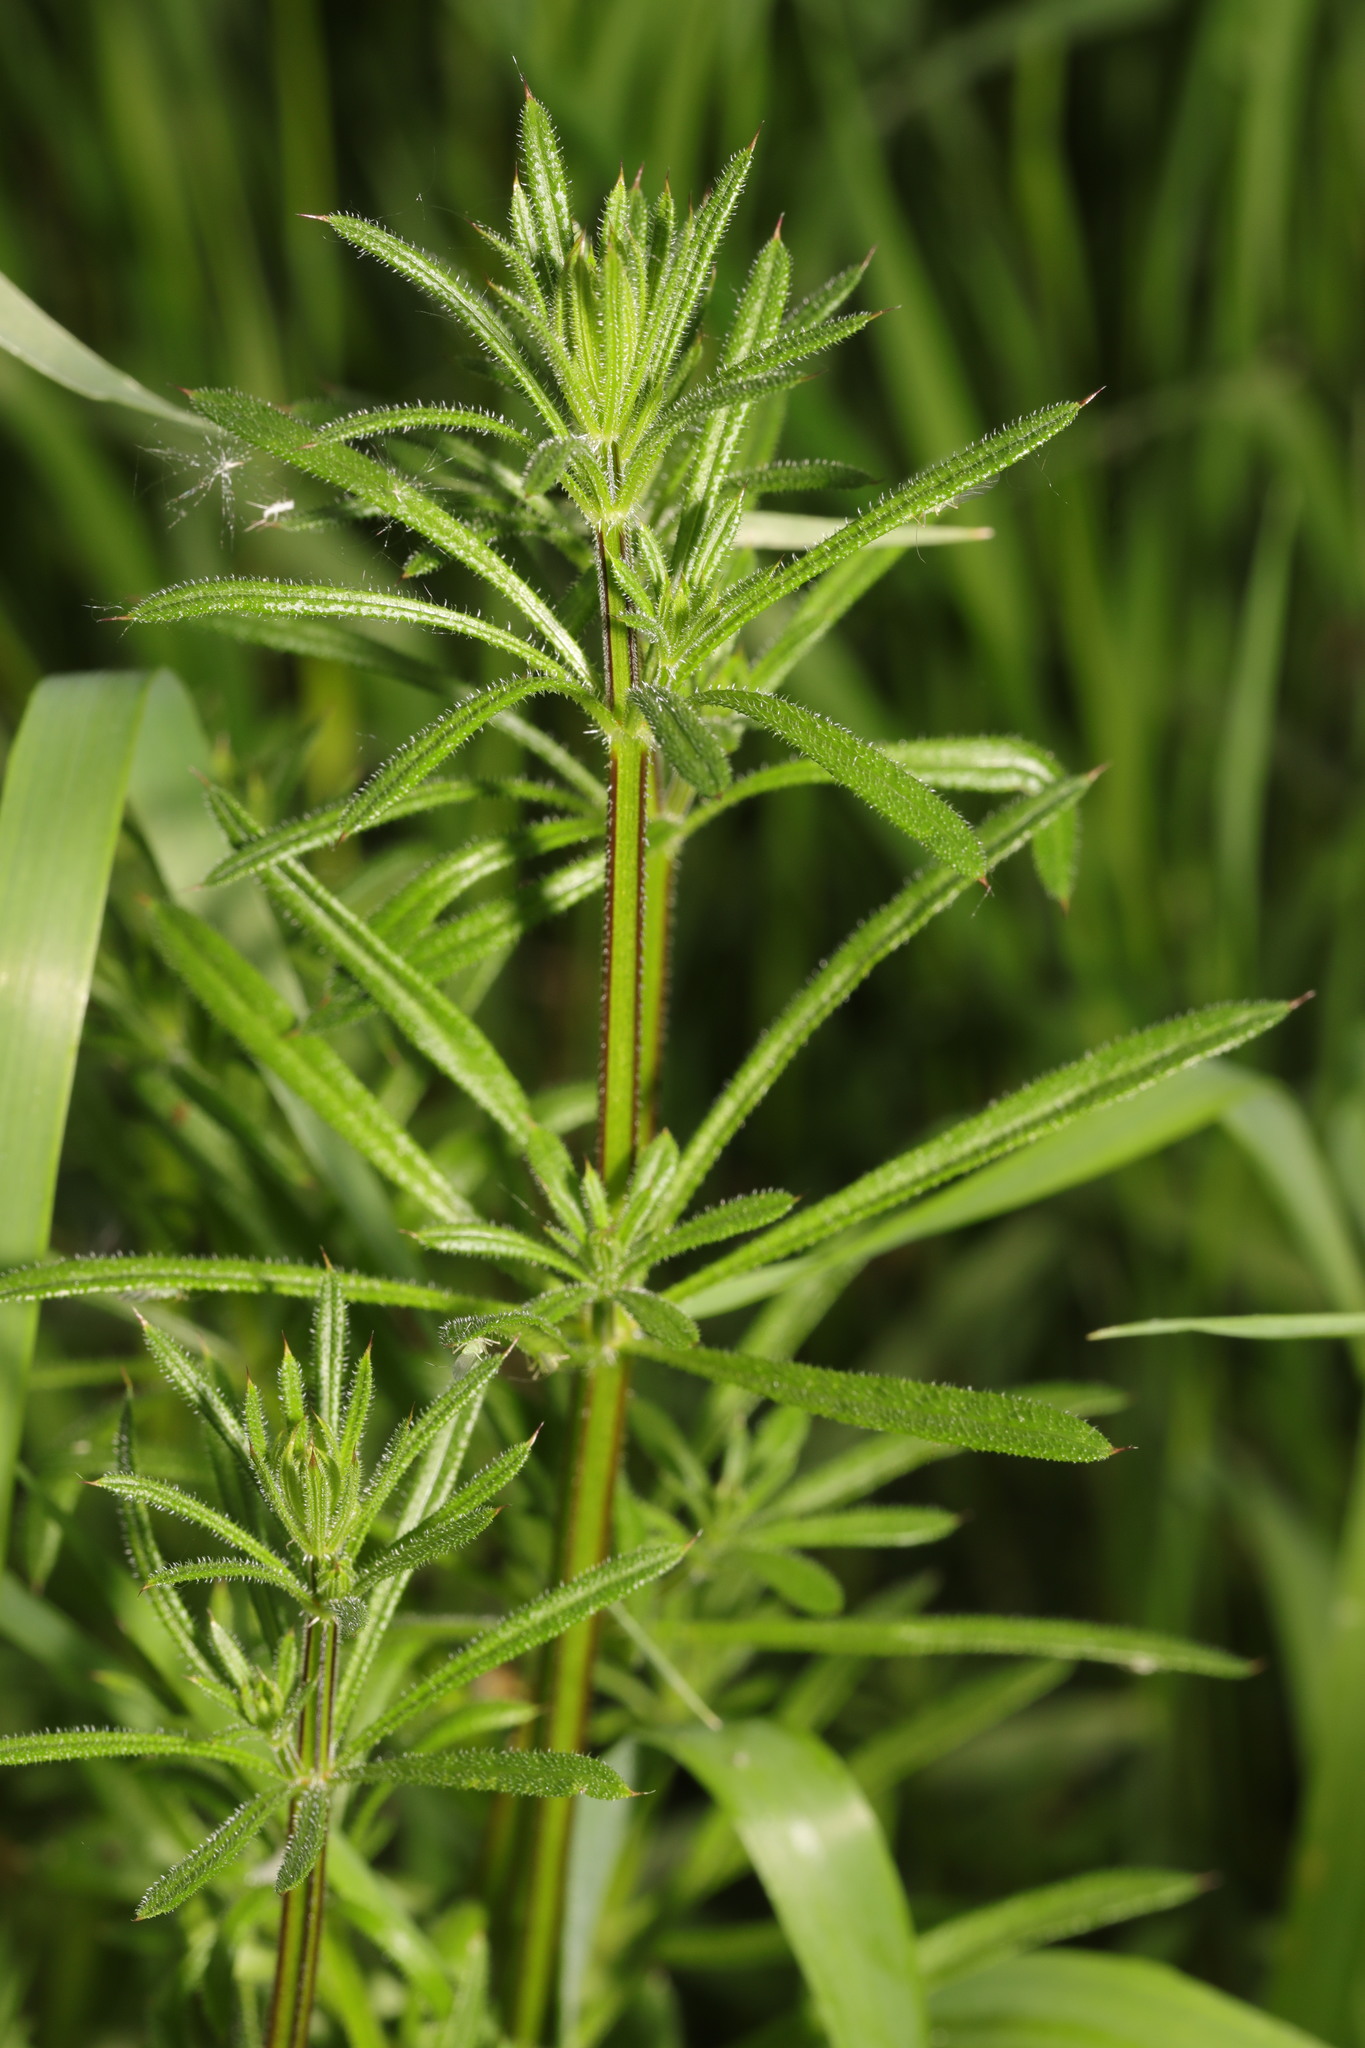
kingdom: Plantae
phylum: Tracheophyta
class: Magnoliopsida
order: Gentianales
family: Rubiaceae
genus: Galium
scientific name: Galium aparine
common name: Cleavers
